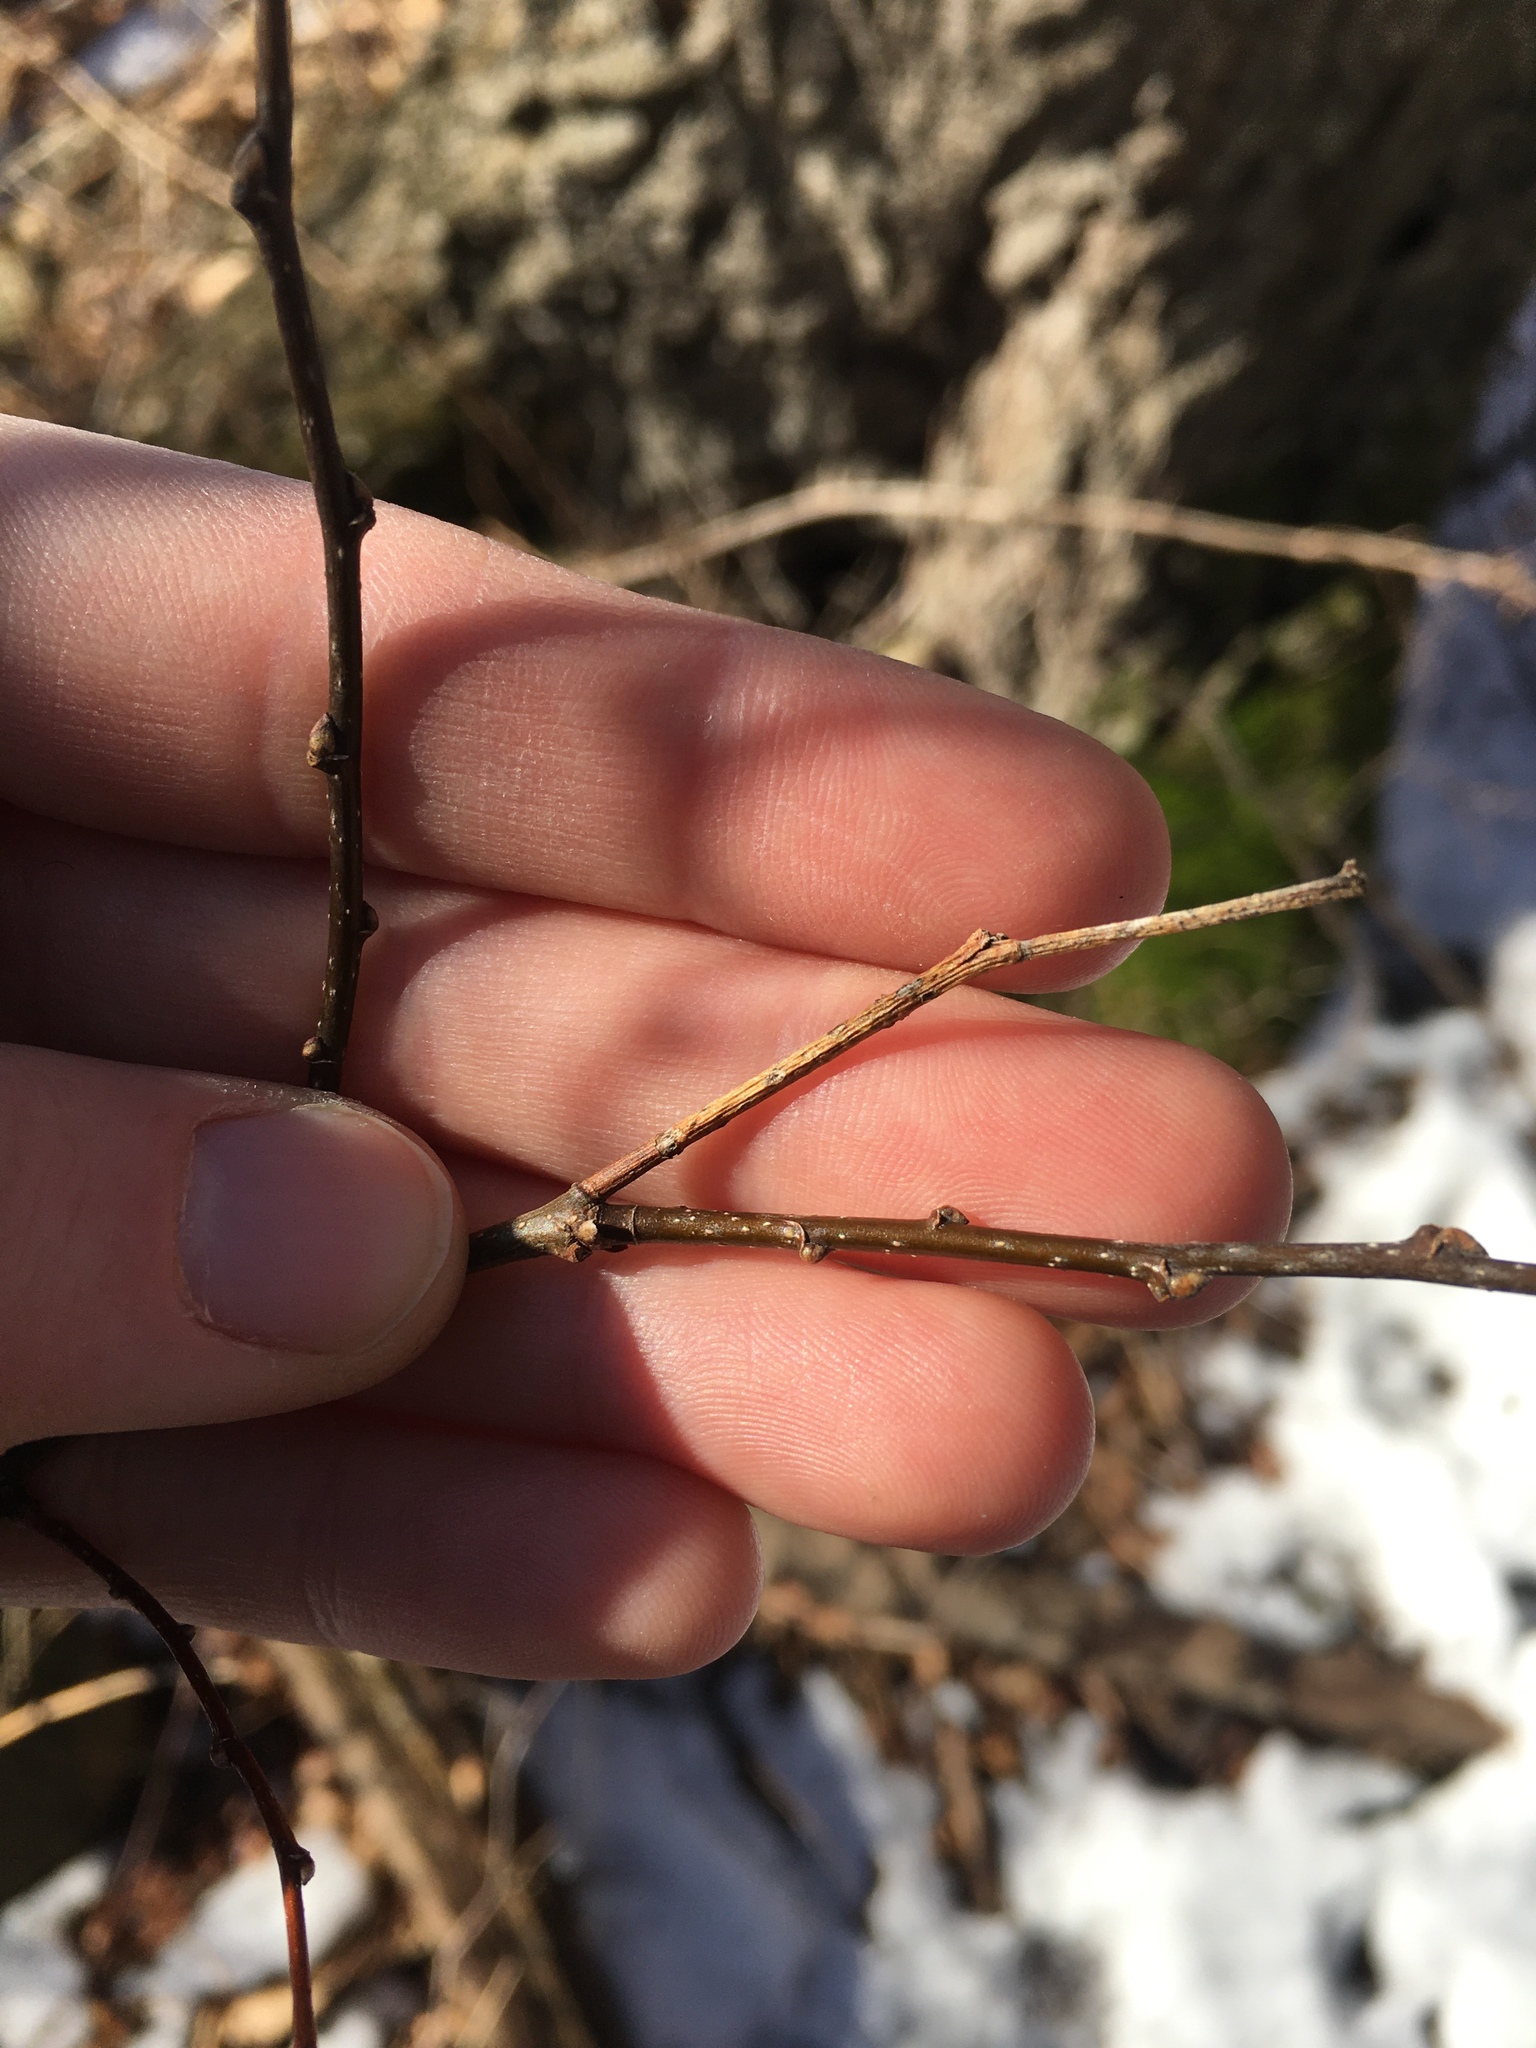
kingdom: Plantae
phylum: Tracheophyta
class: Magnoliopsida
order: Rosales
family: Cannabaceae
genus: Celtis
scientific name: Celtis occidentalis
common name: Common hackberry
